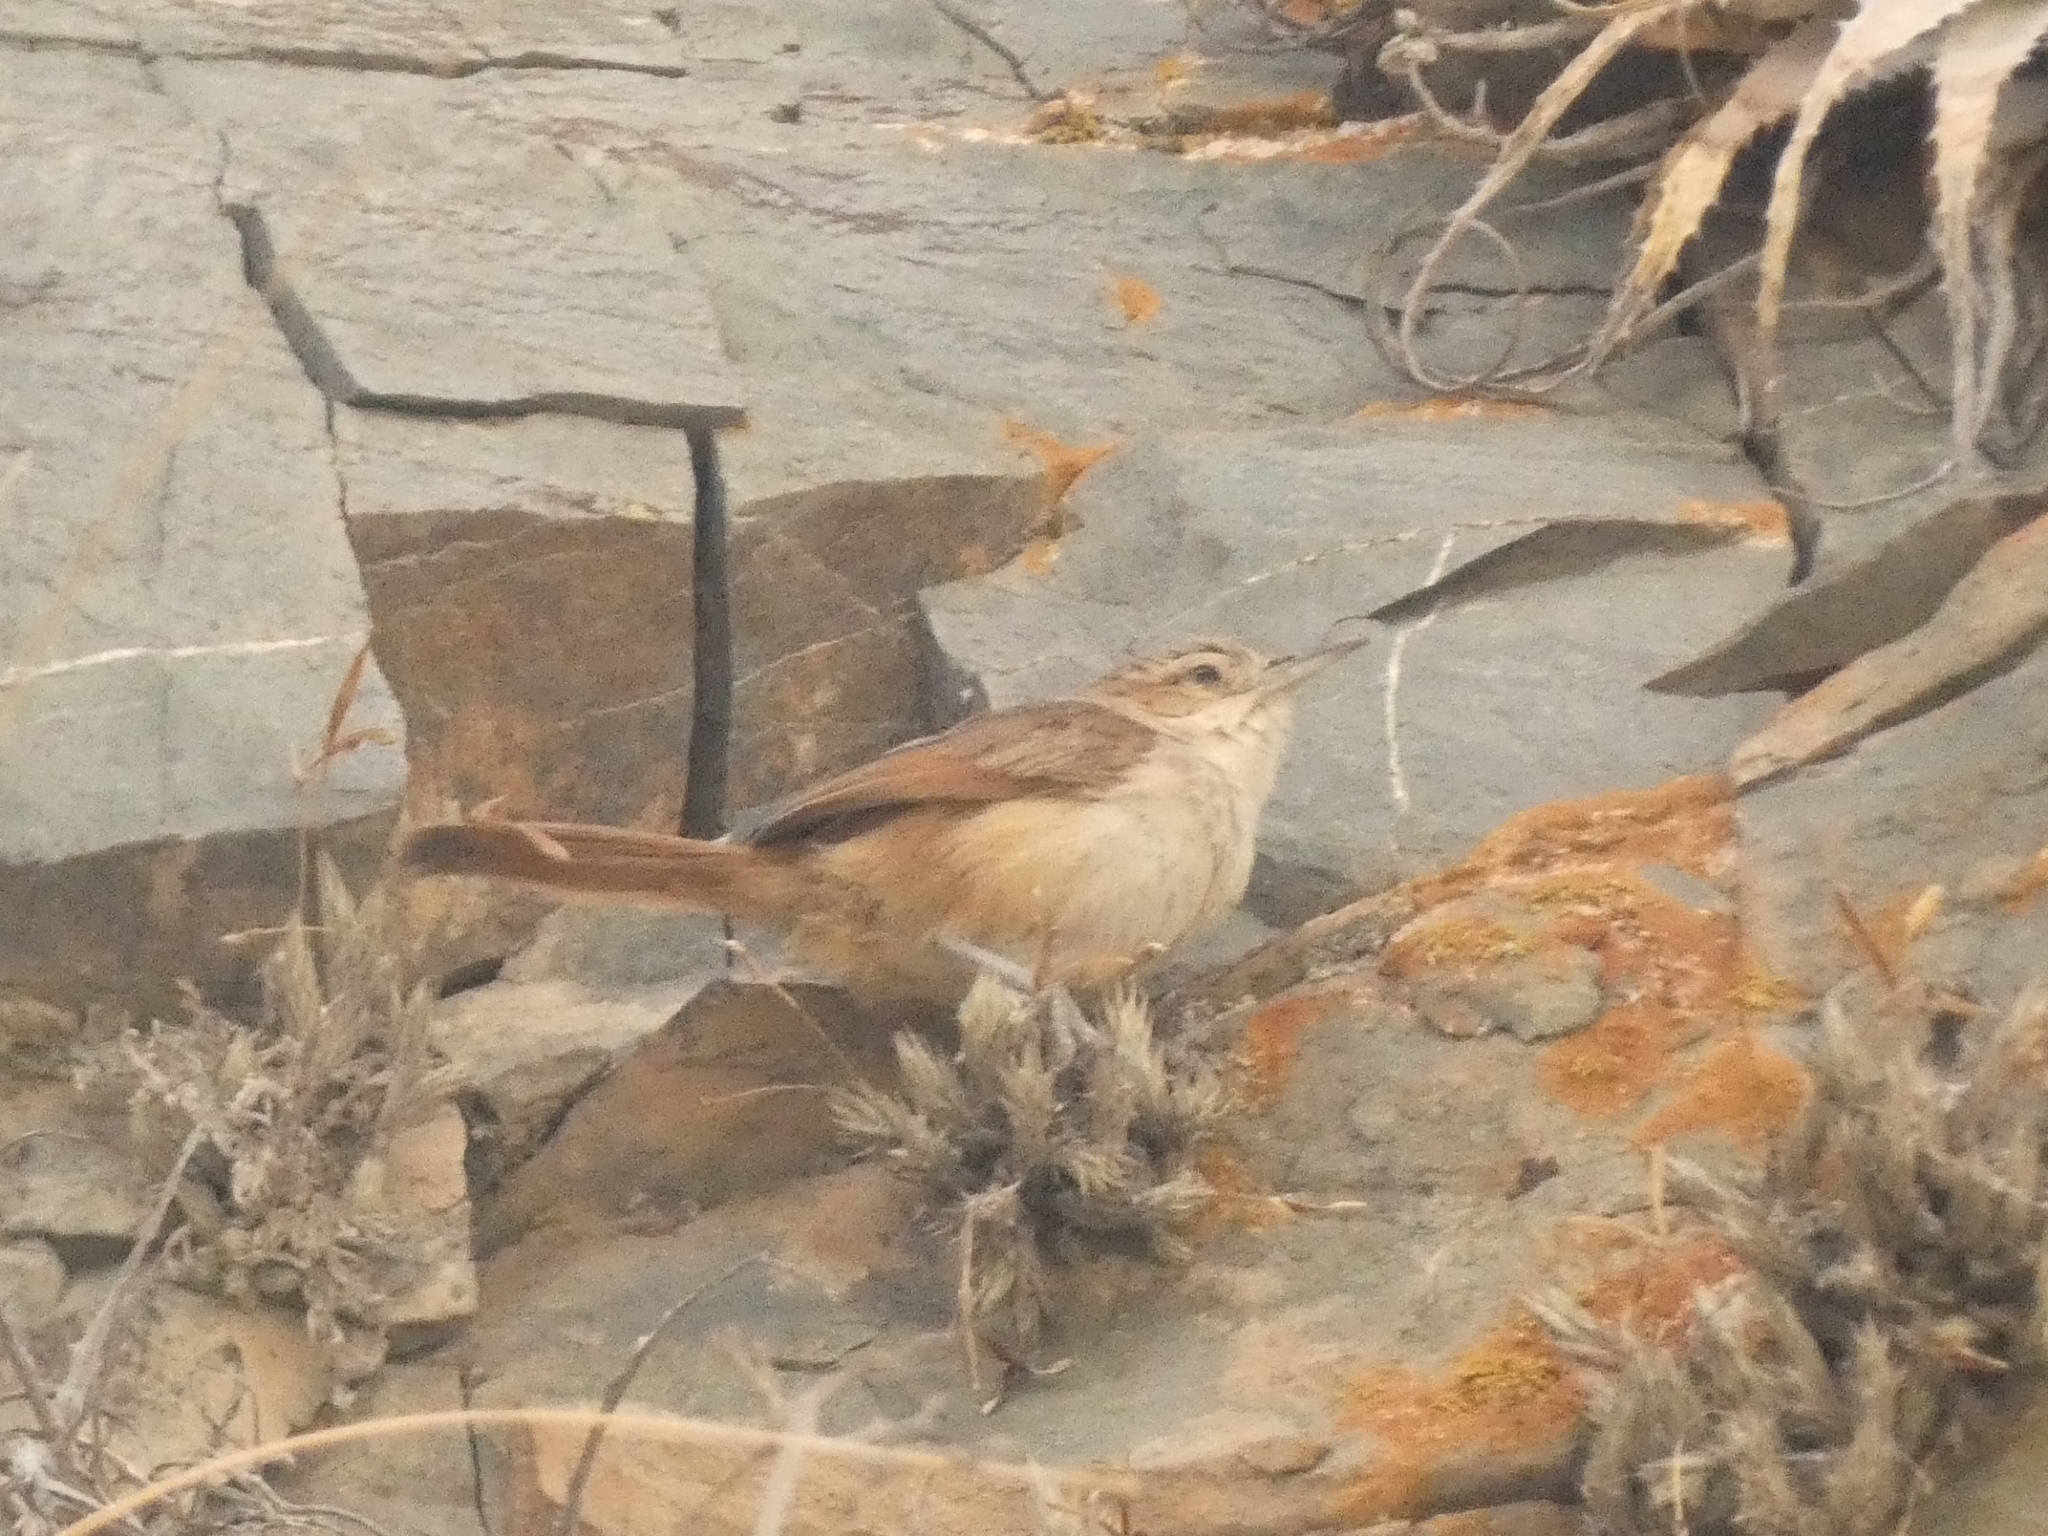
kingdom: Animalia
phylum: Chordata
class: Aves
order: Passeriformes
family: Furnariidae
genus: Asthenes
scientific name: Asthenes dorbignyi
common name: Rusty-vented canastero
